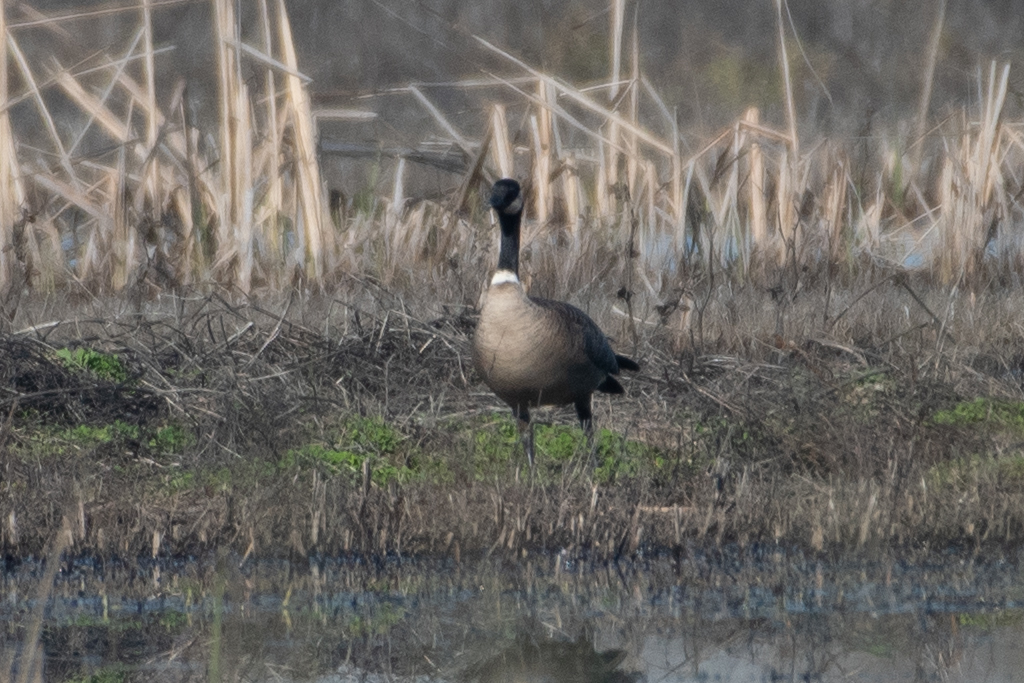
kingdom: Animalia
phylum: Chordata
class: Aves
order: Anseriformes
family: Anatidae
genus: Branta
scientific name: Branta canadensis
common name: Canada goose
